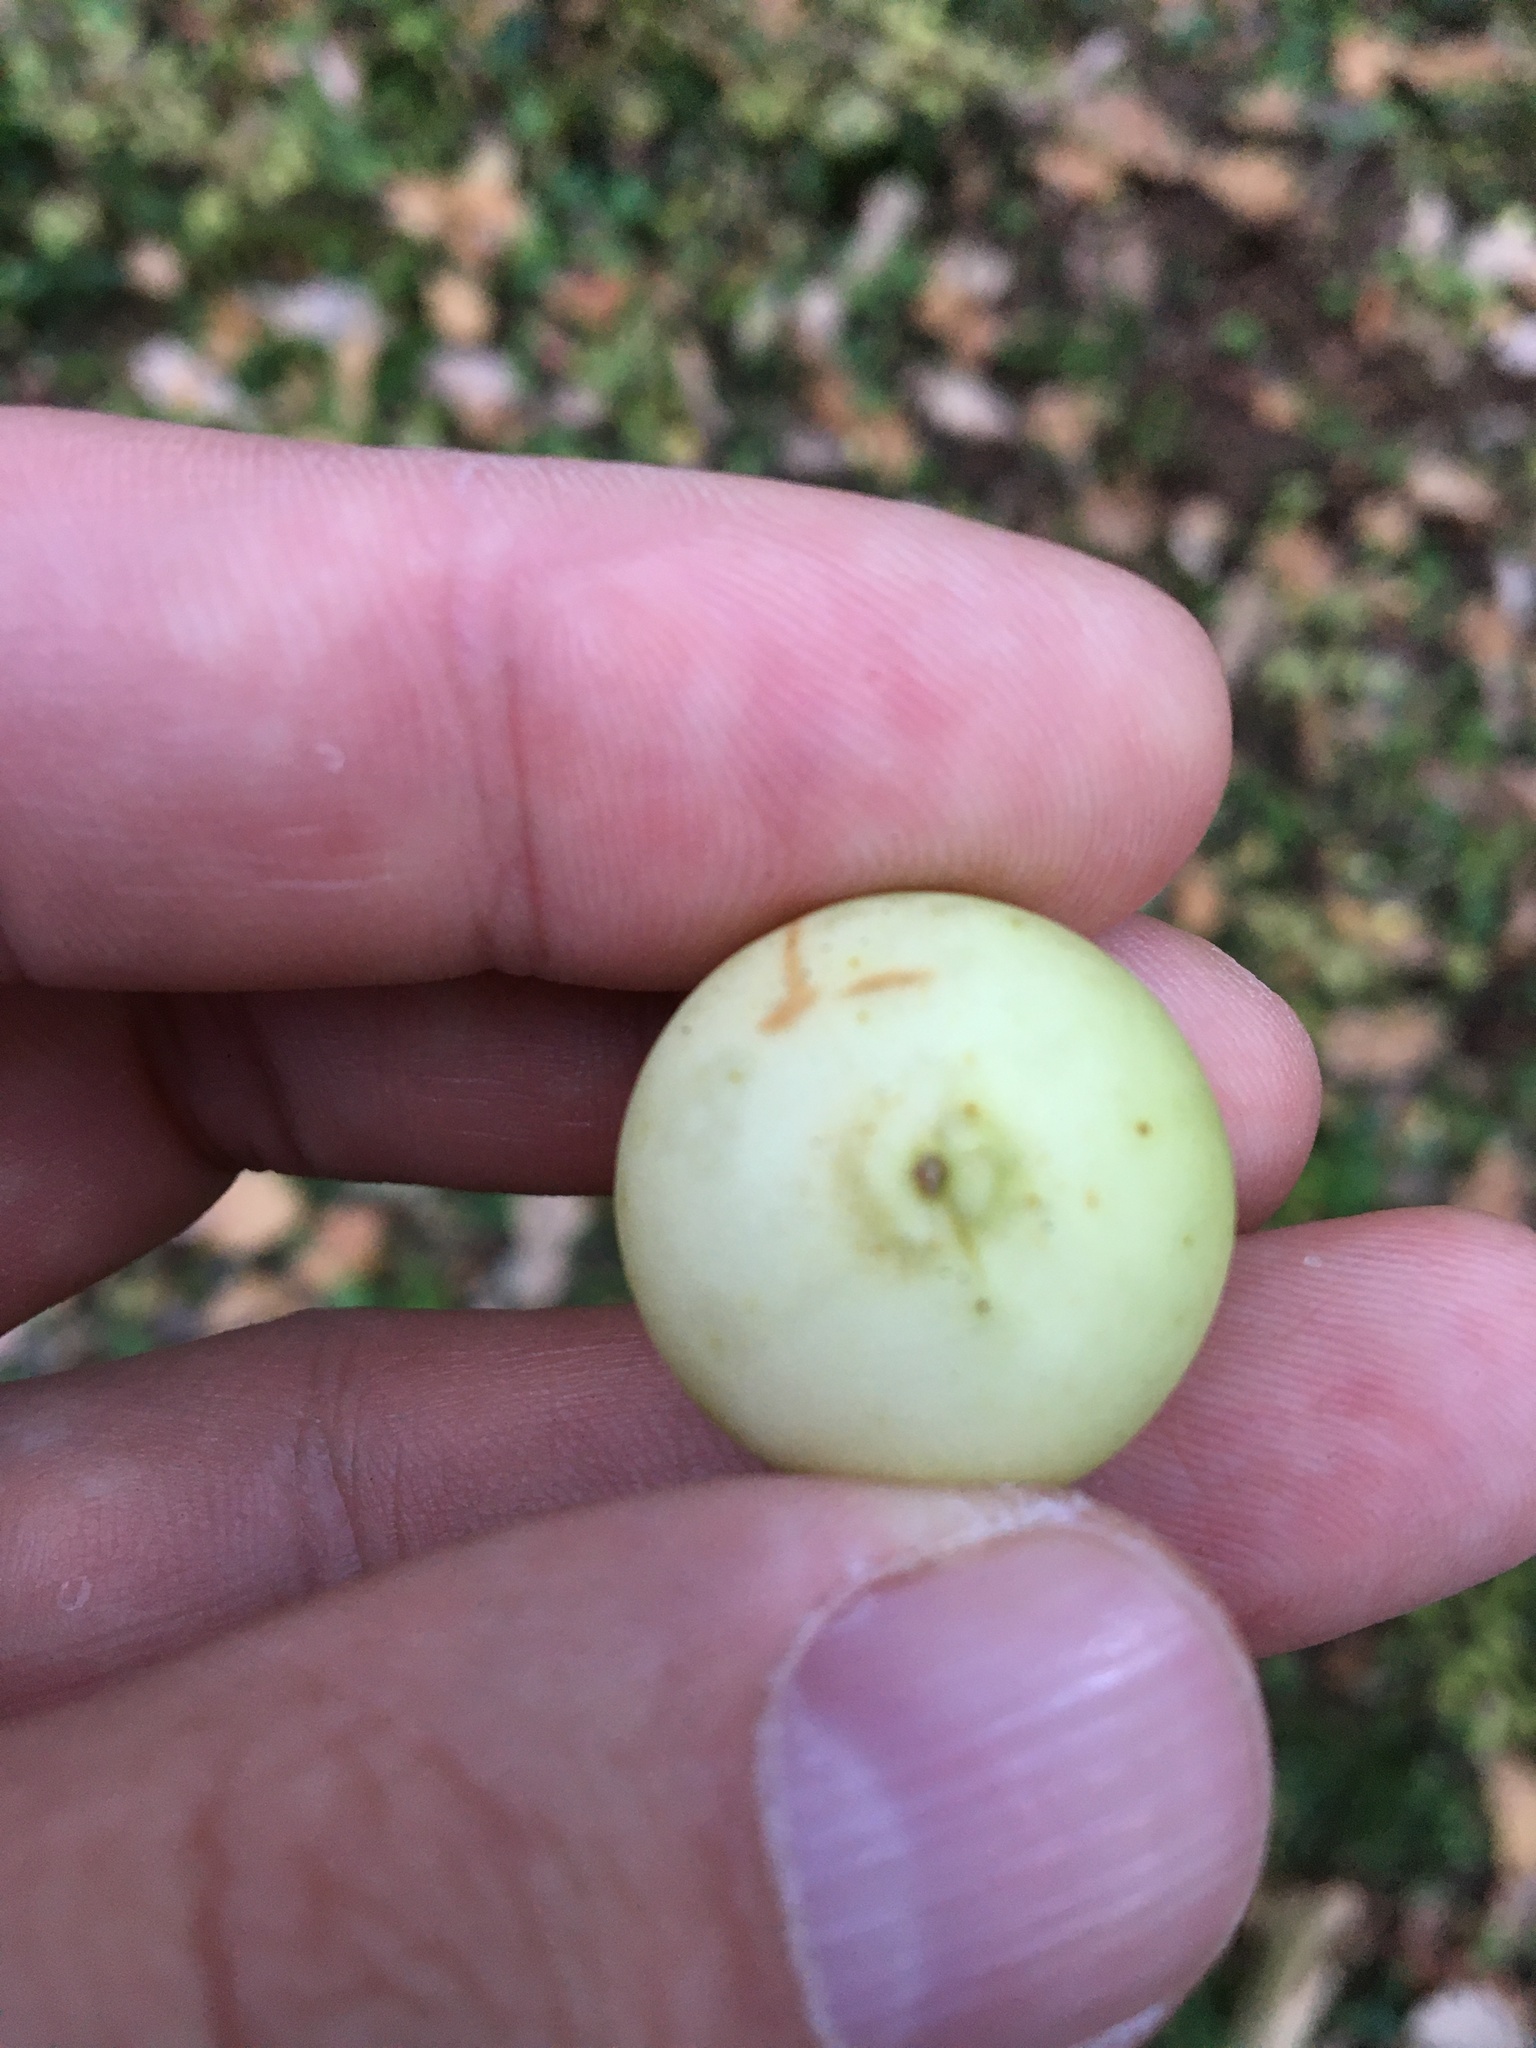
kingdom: Animalia
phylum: Arthropoda
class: Insecta
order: Hymenoptera
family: Cynipidae
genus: Cynips
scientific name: Cynips quercusfolii
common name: Cherry gall
